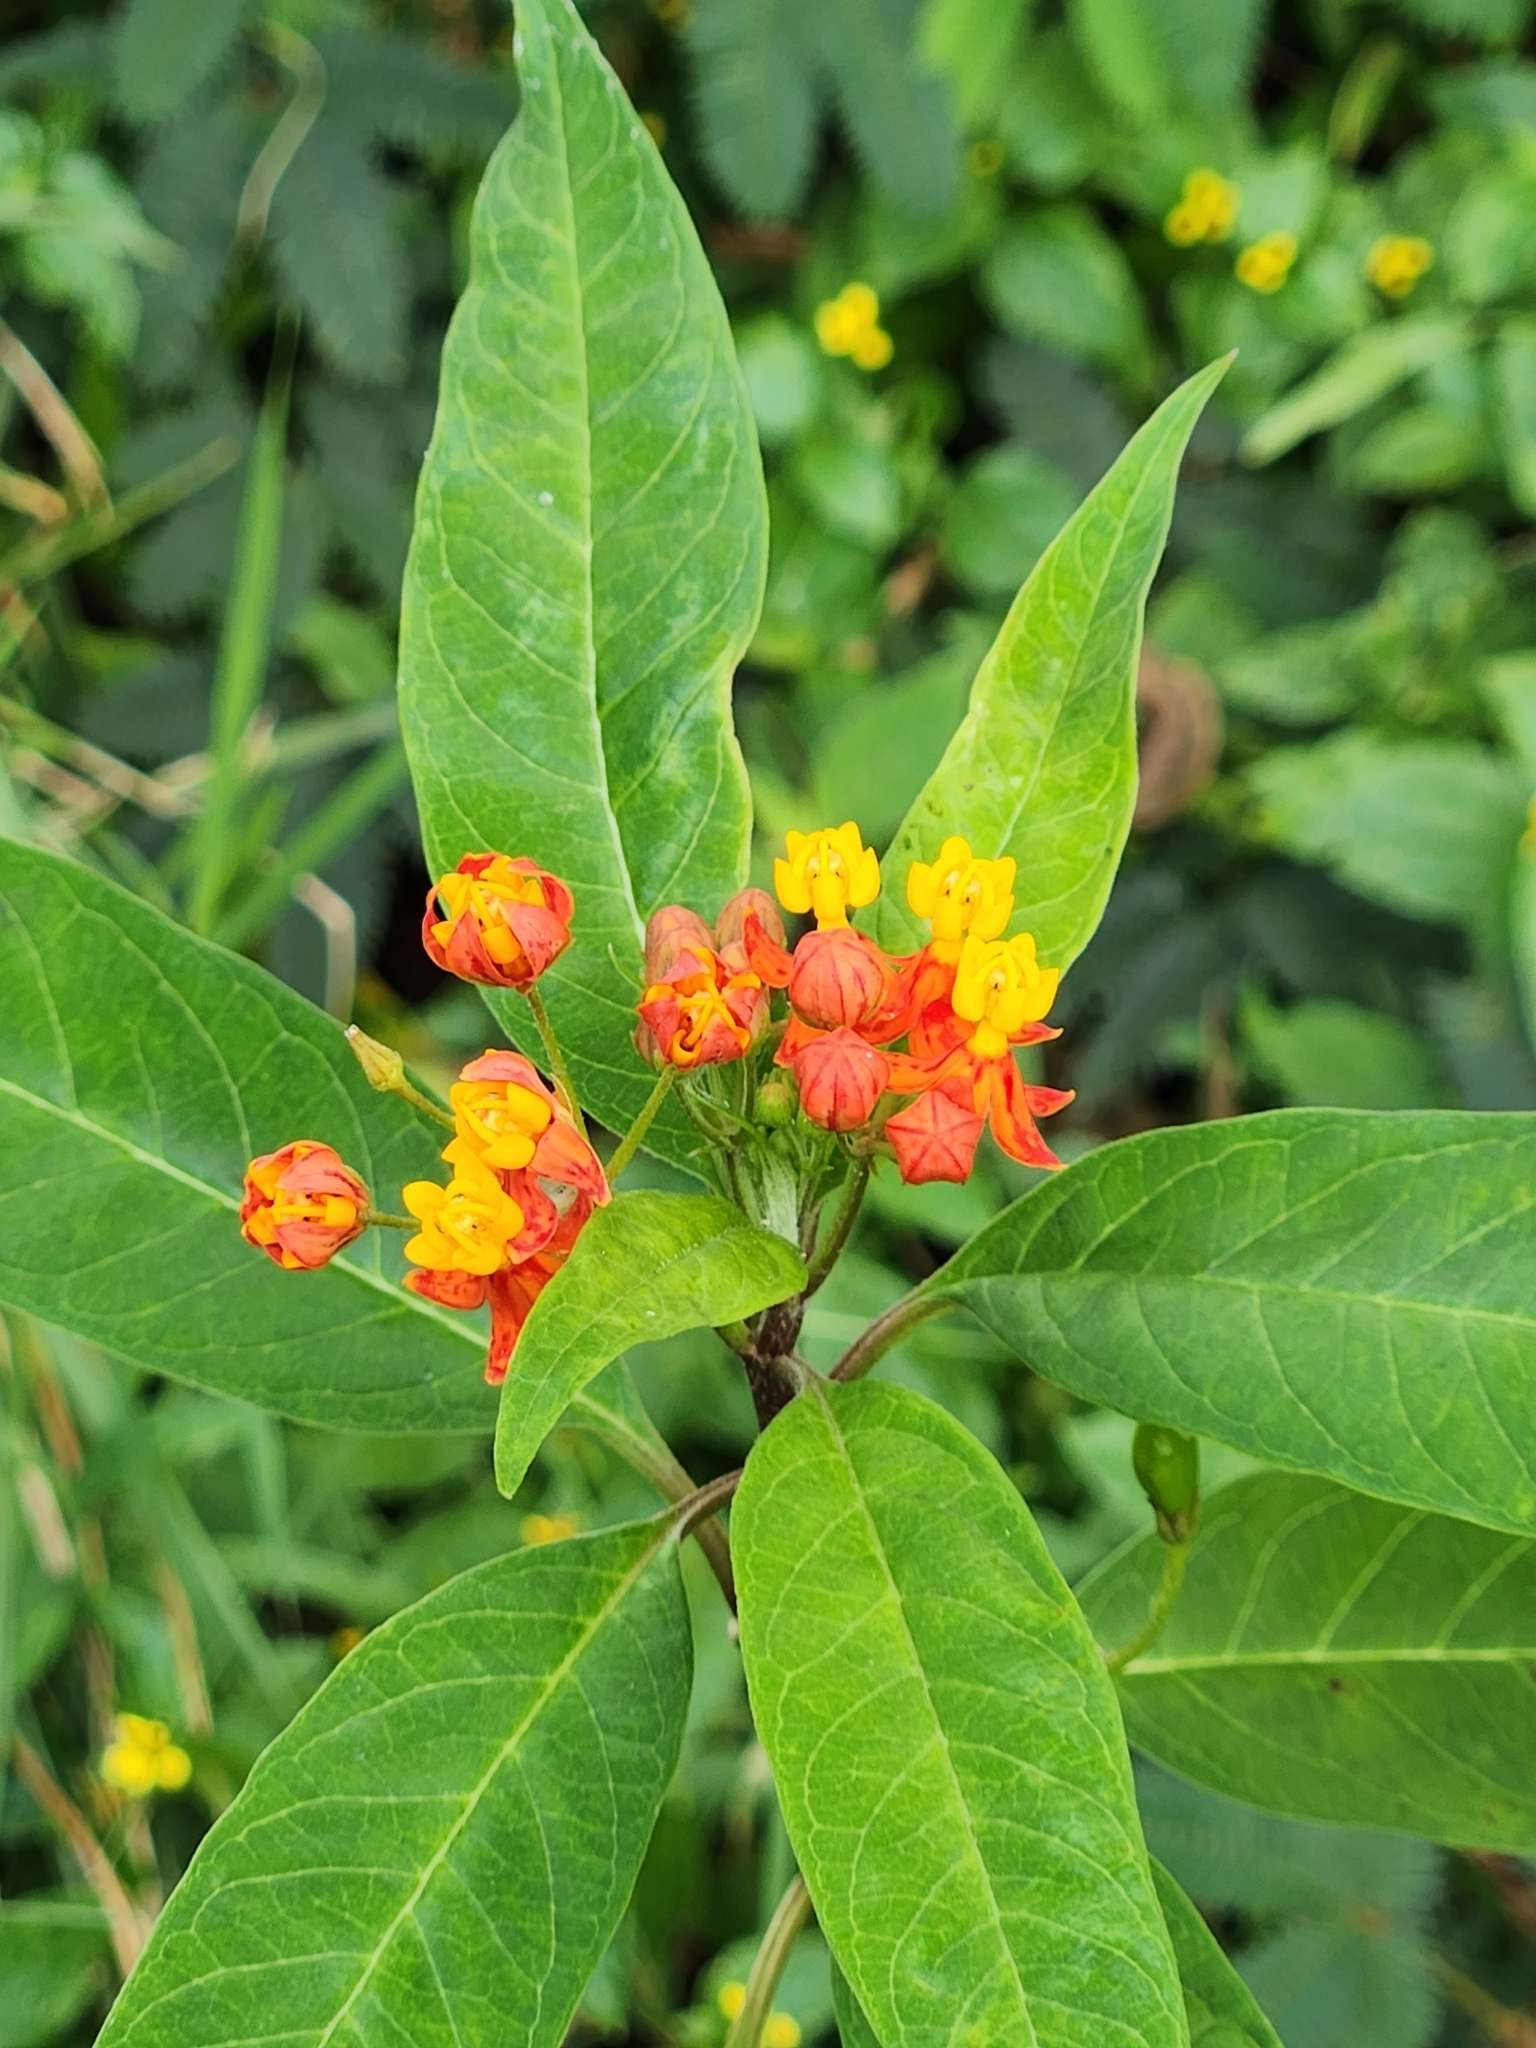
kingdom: Plantae
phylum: Tracheophyta
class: Magnoliopsida
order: Gentianales
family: Apocynaceae
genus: Asclepias
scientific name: Asclepias curassavica
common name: Bloodflower
